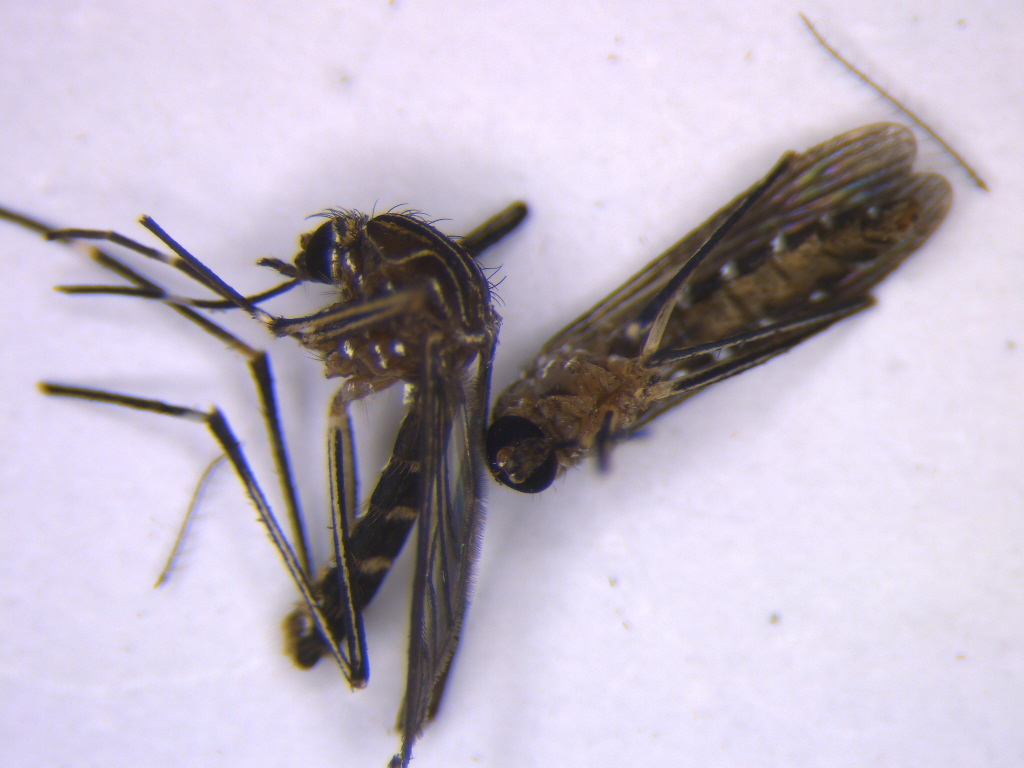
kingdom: Animalia
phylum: Arthropoda
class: Insecta
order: Diptera
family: Culicidae
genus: Aedes
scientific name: Aedes notoscriptus
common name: Australian backyard mosquito
